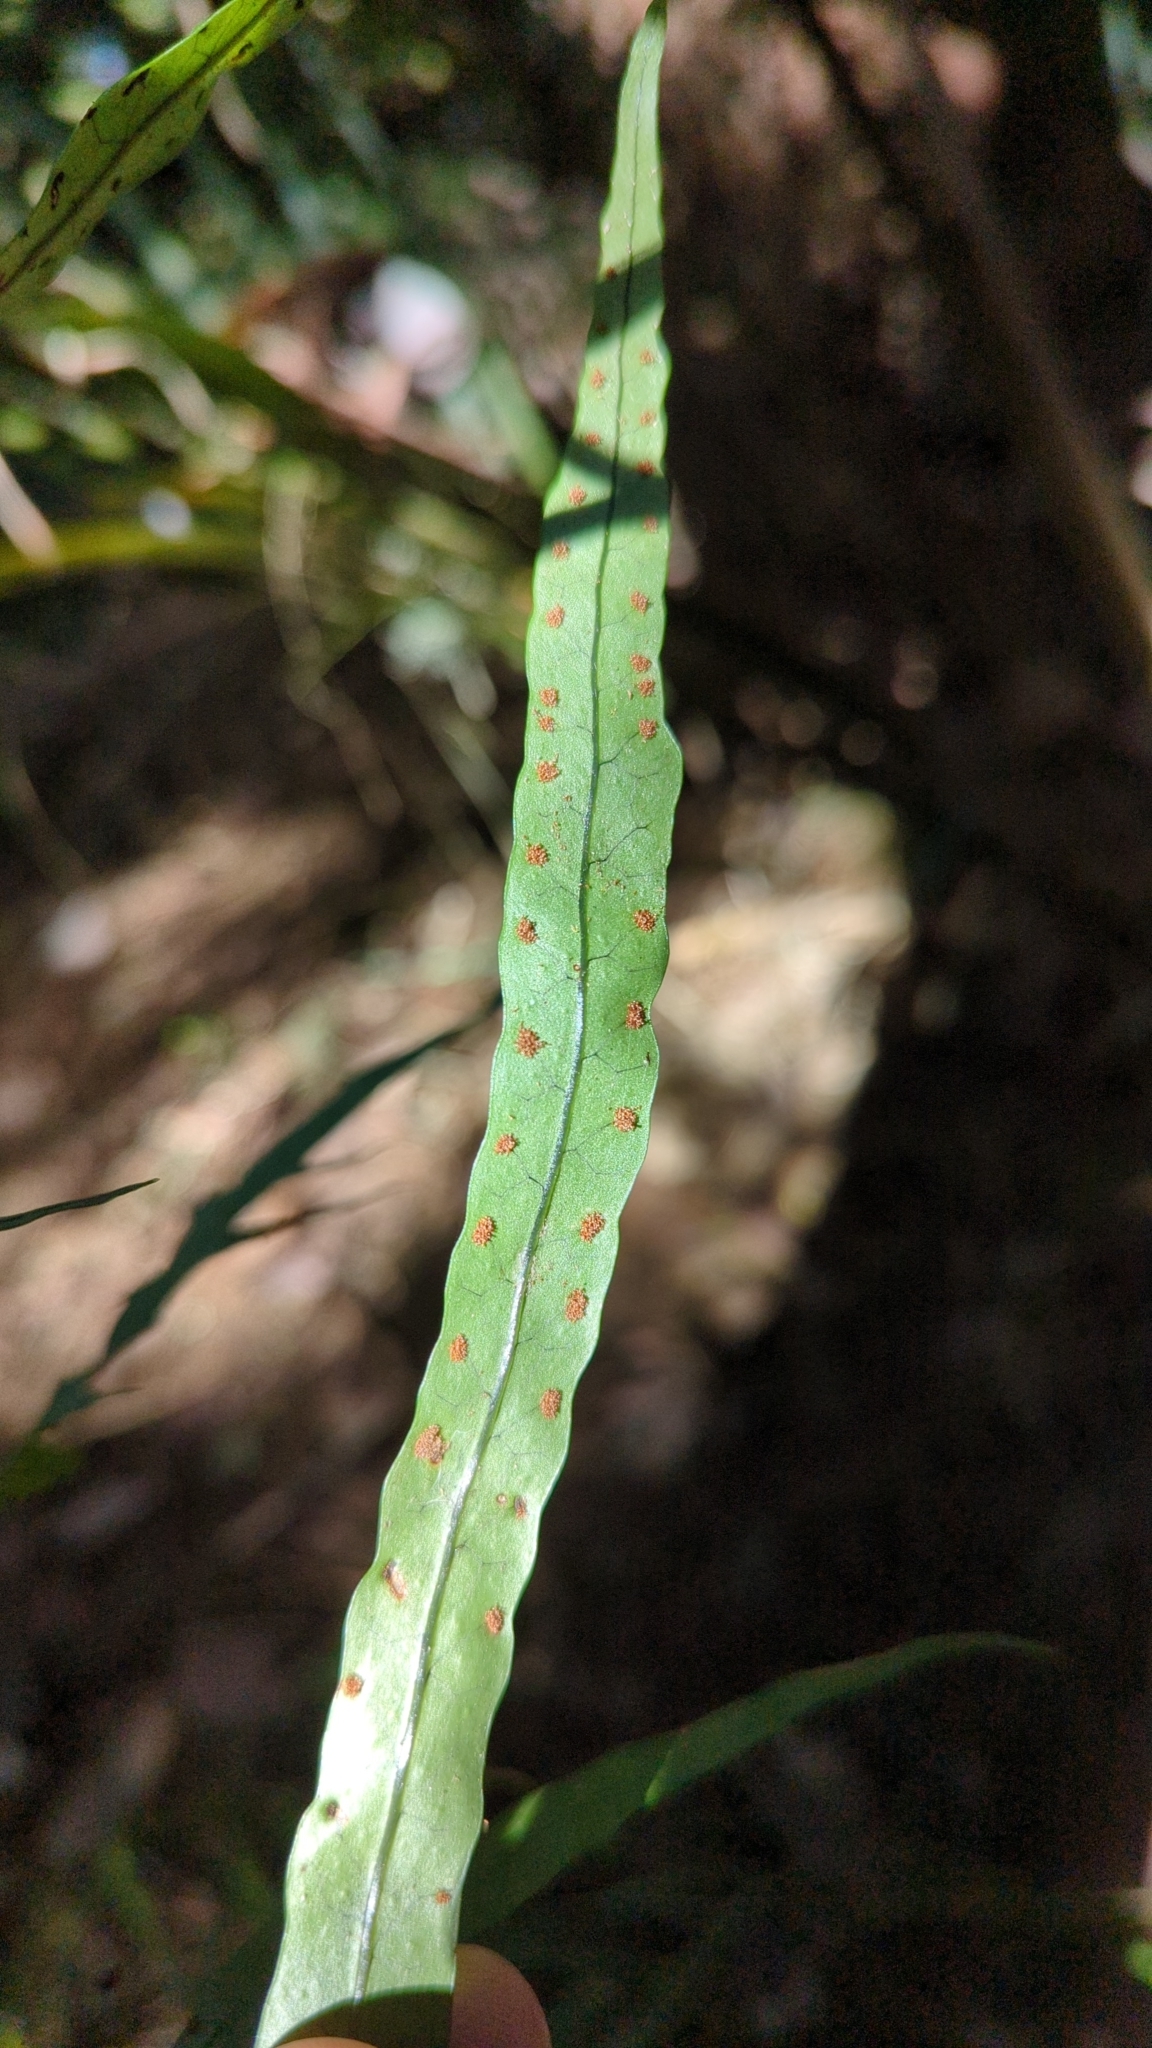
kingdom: Plantae
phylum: Tracheophyta
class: Polypodiopsida
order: Polypodiales
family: Polypodiaceae
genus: Lecanopteris
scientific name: Lecanopteris scandens
